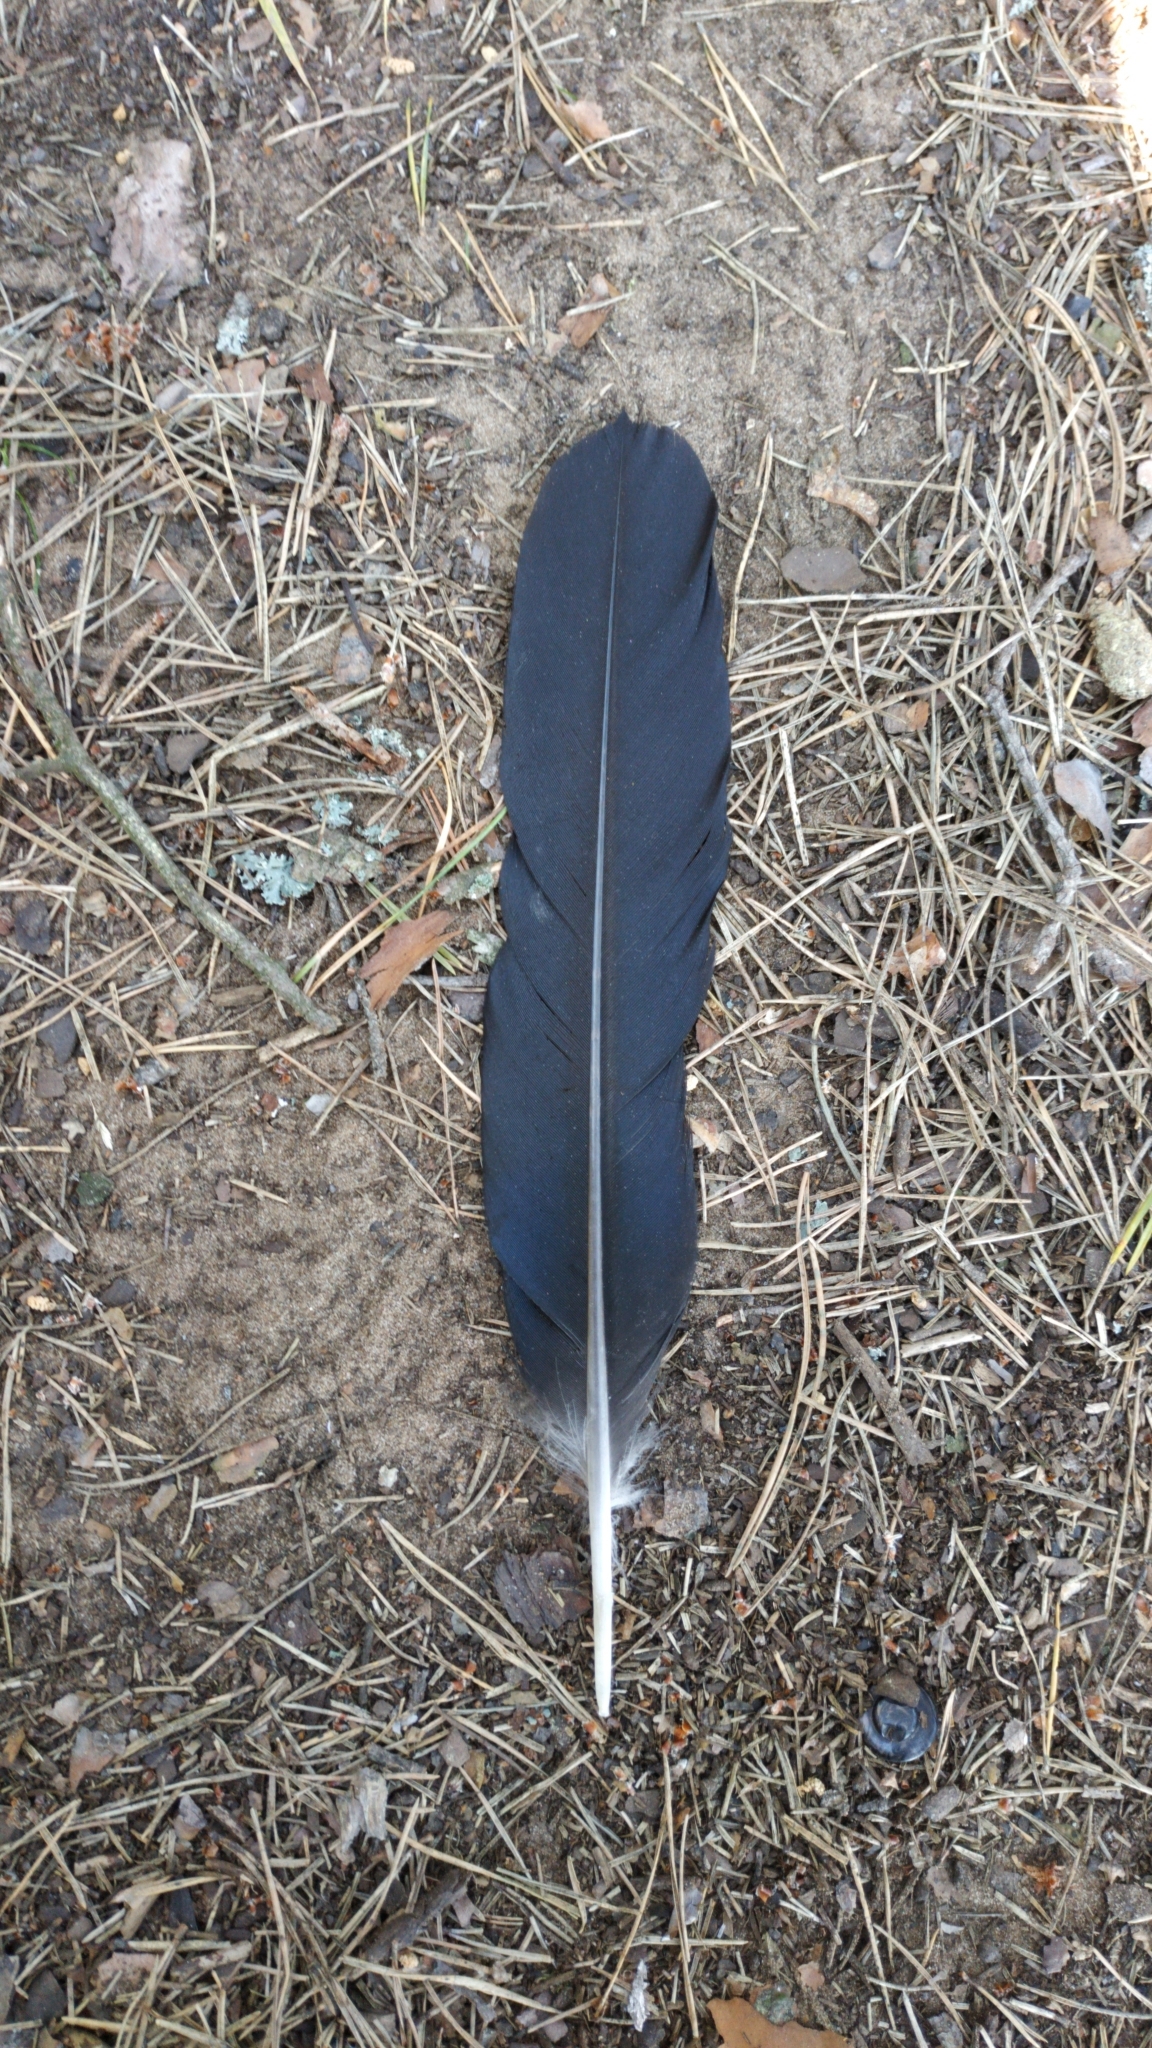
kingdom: Animalia
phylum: Chordata
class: Aves
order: Passeriformes
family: Corvidae
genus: Corvus
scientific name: Corvus corax
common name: Common raven
